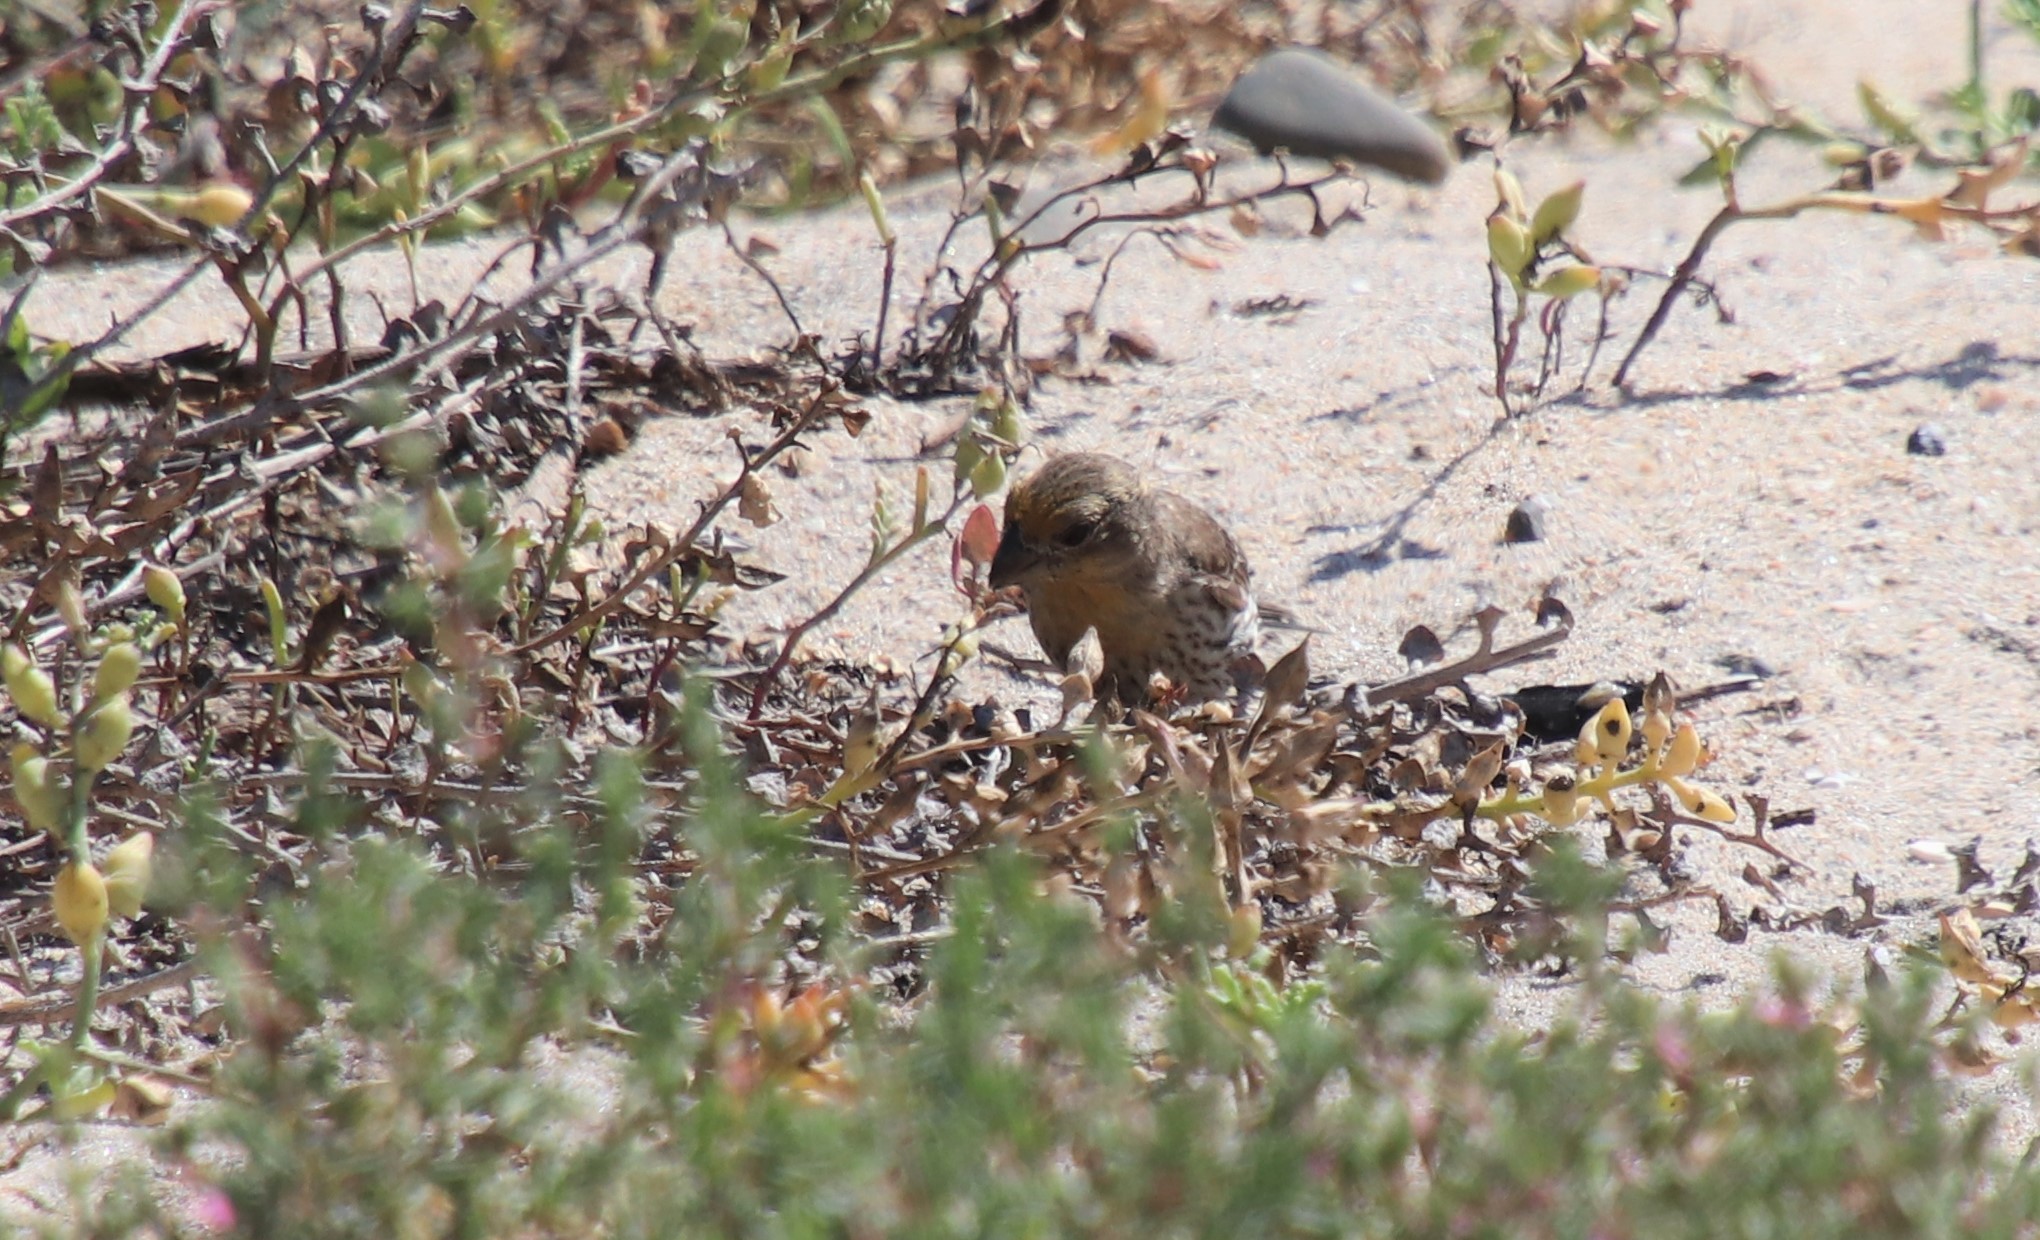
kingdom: Animalia
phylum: Chordata
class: Aves
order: Passeriformes
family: Fringillidae
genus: Haemorhous
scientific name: Haemorhous mexicanus
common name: House finch
